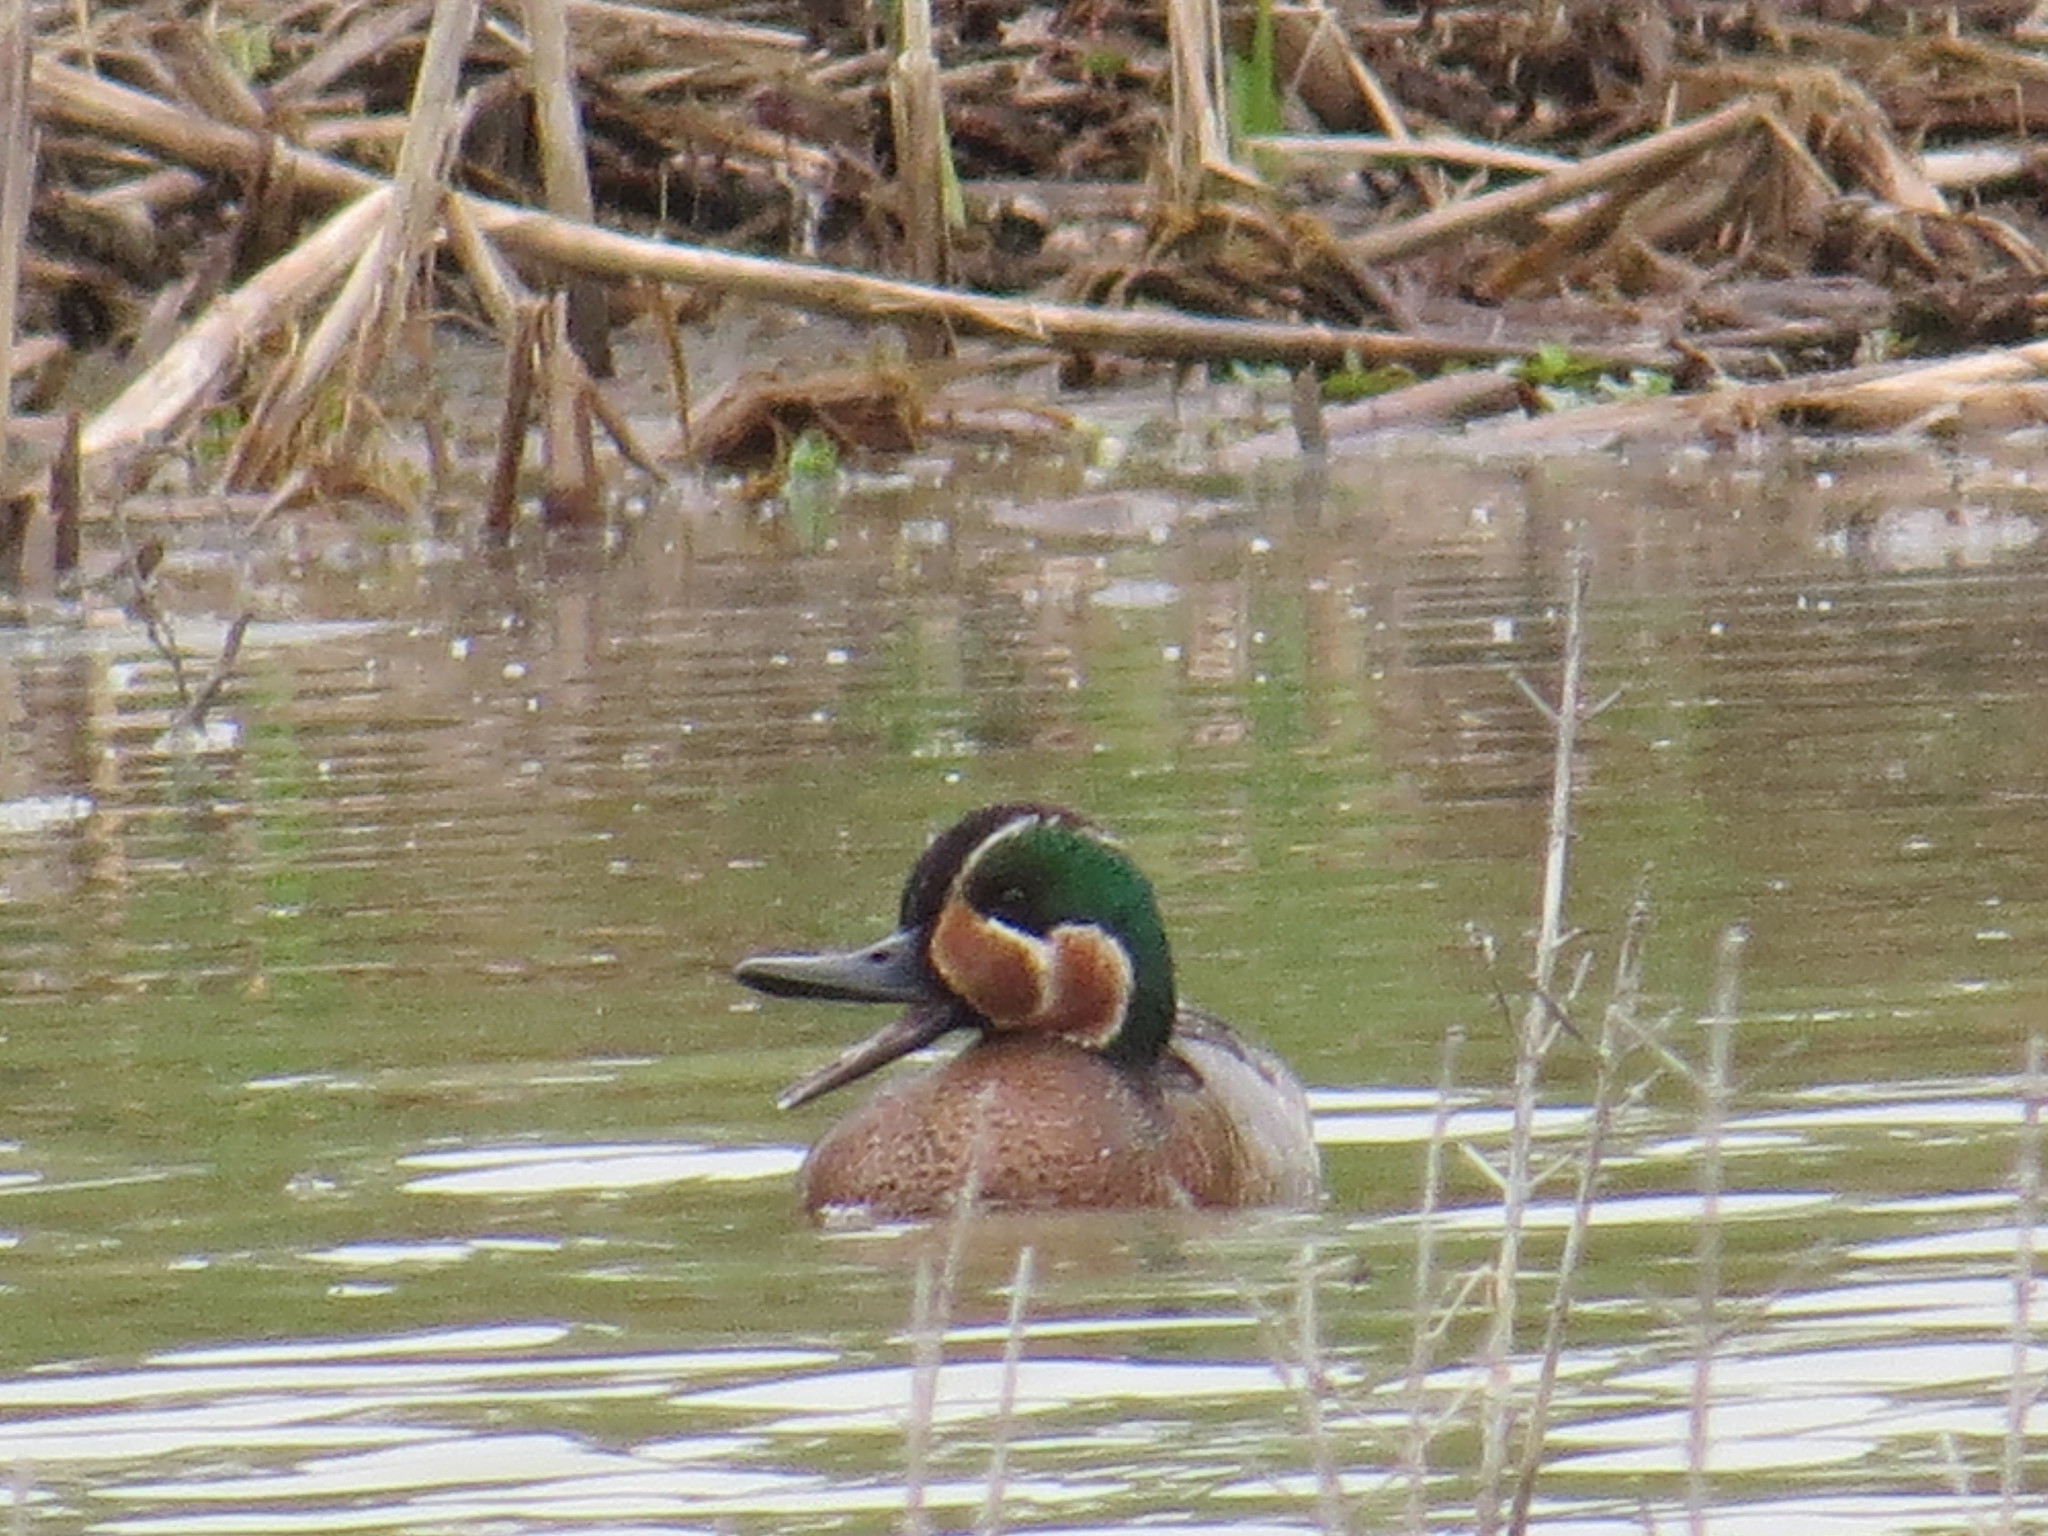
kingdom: Animalia
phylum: Chordata
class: Aves
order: Anseriformes
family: Anatidae
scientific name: Anatidae
